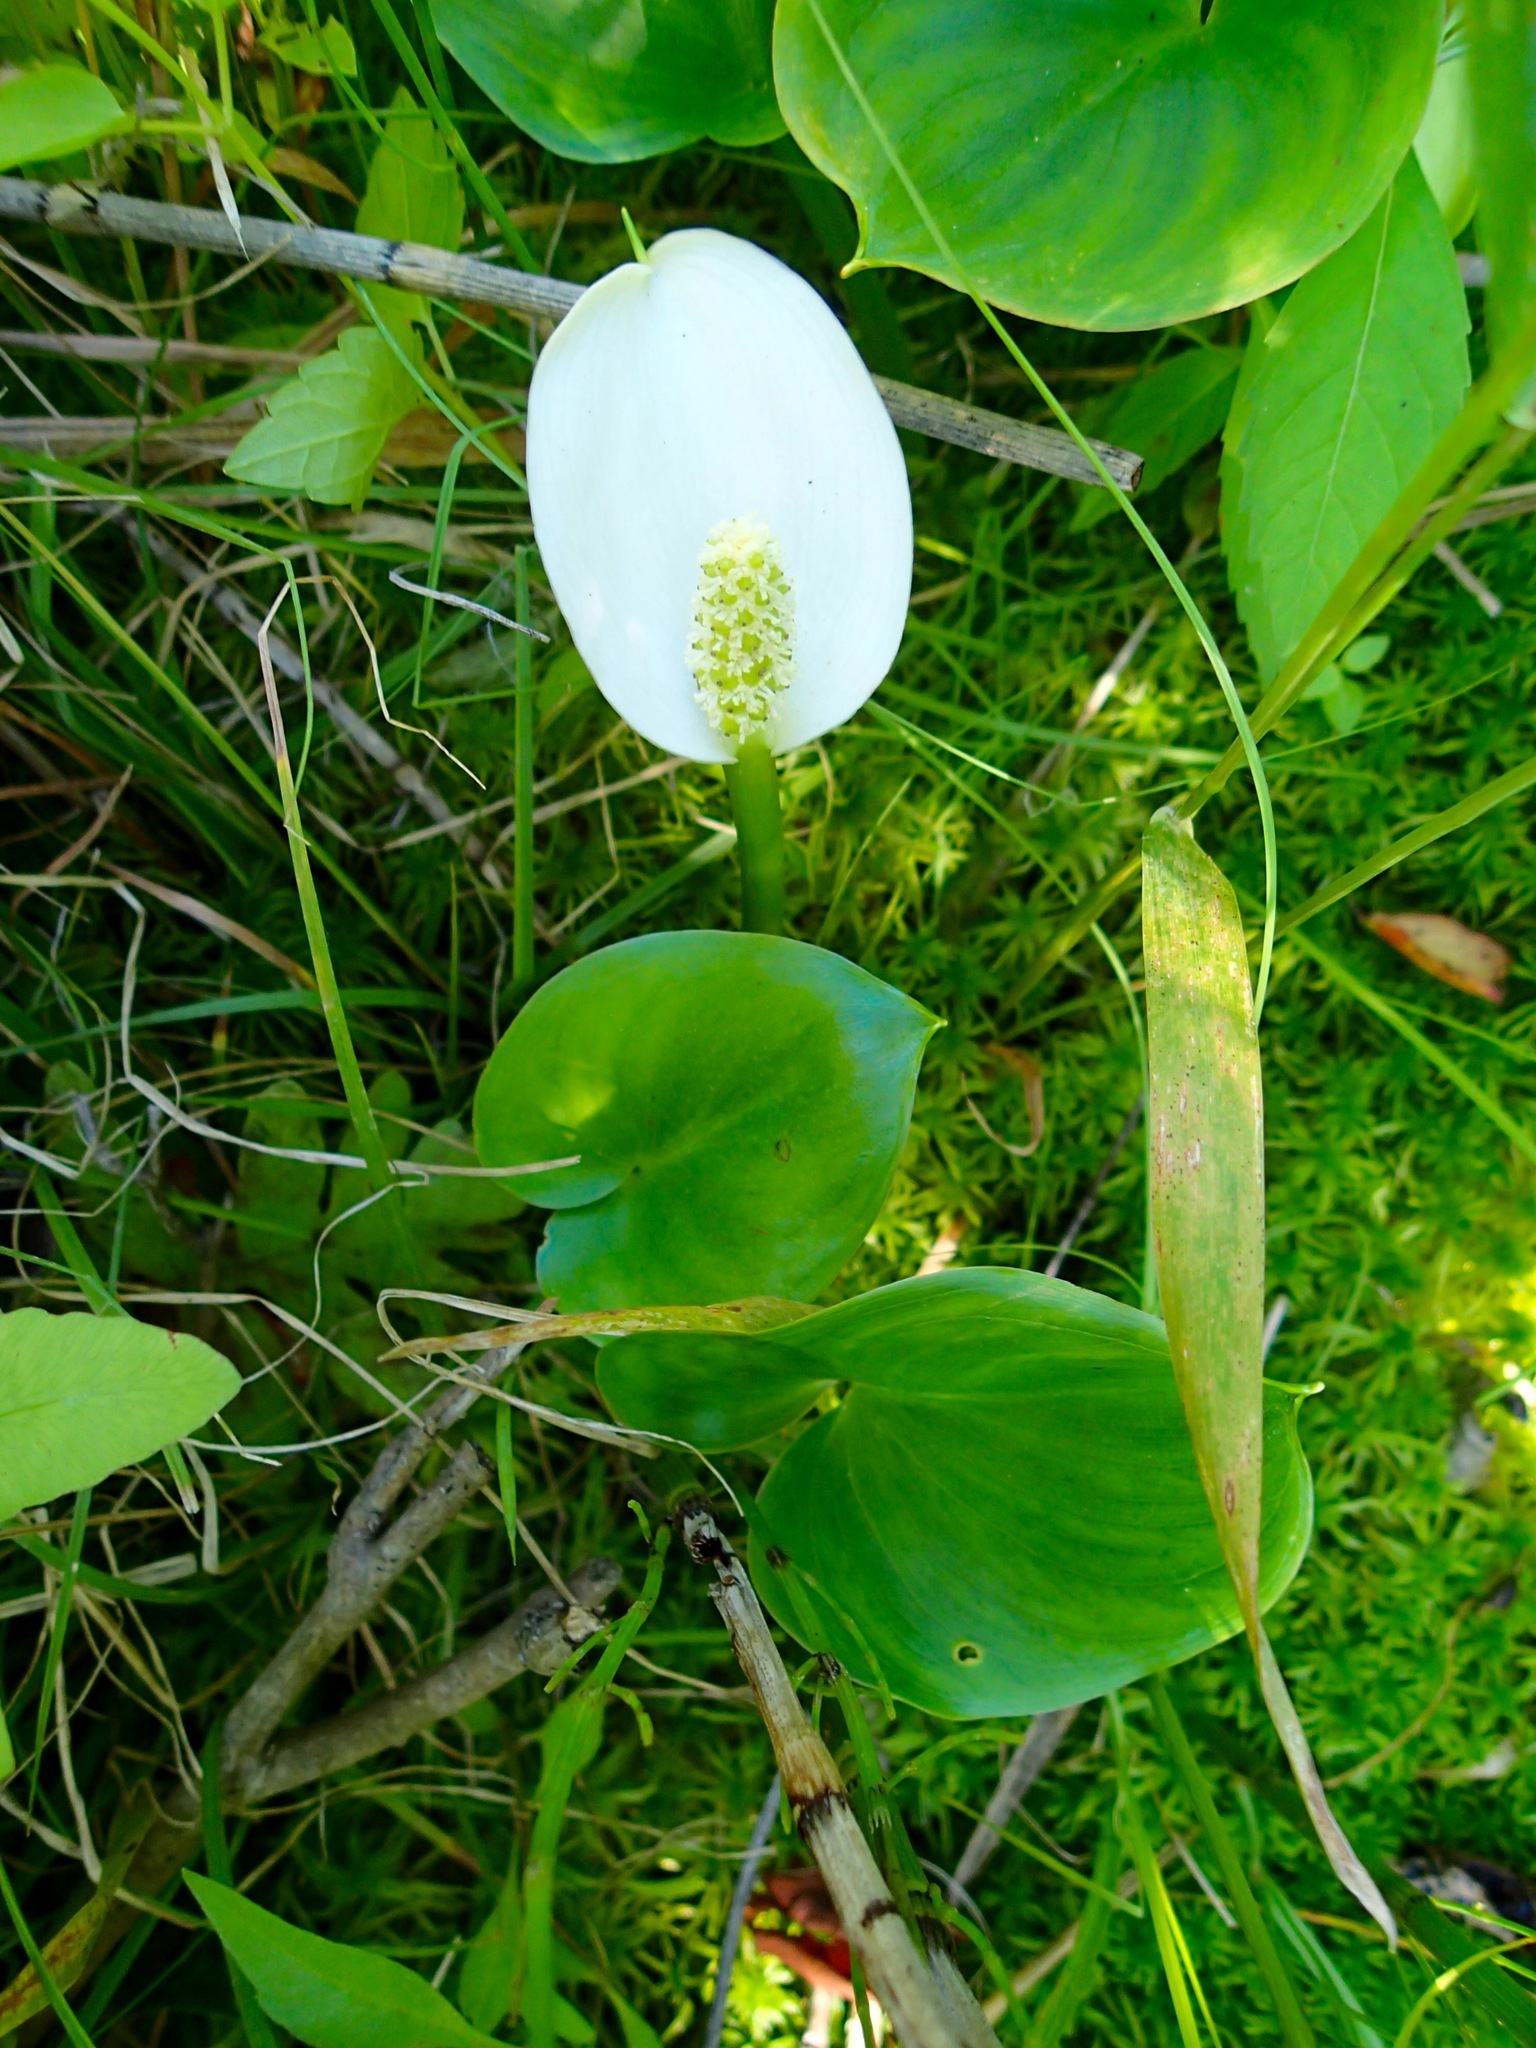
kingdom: Plantae
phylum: Tracheophyta
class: Liliopsida
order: Alismatales
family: Araceae
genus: Calla
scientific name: Calla palustris
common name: Bog arum
